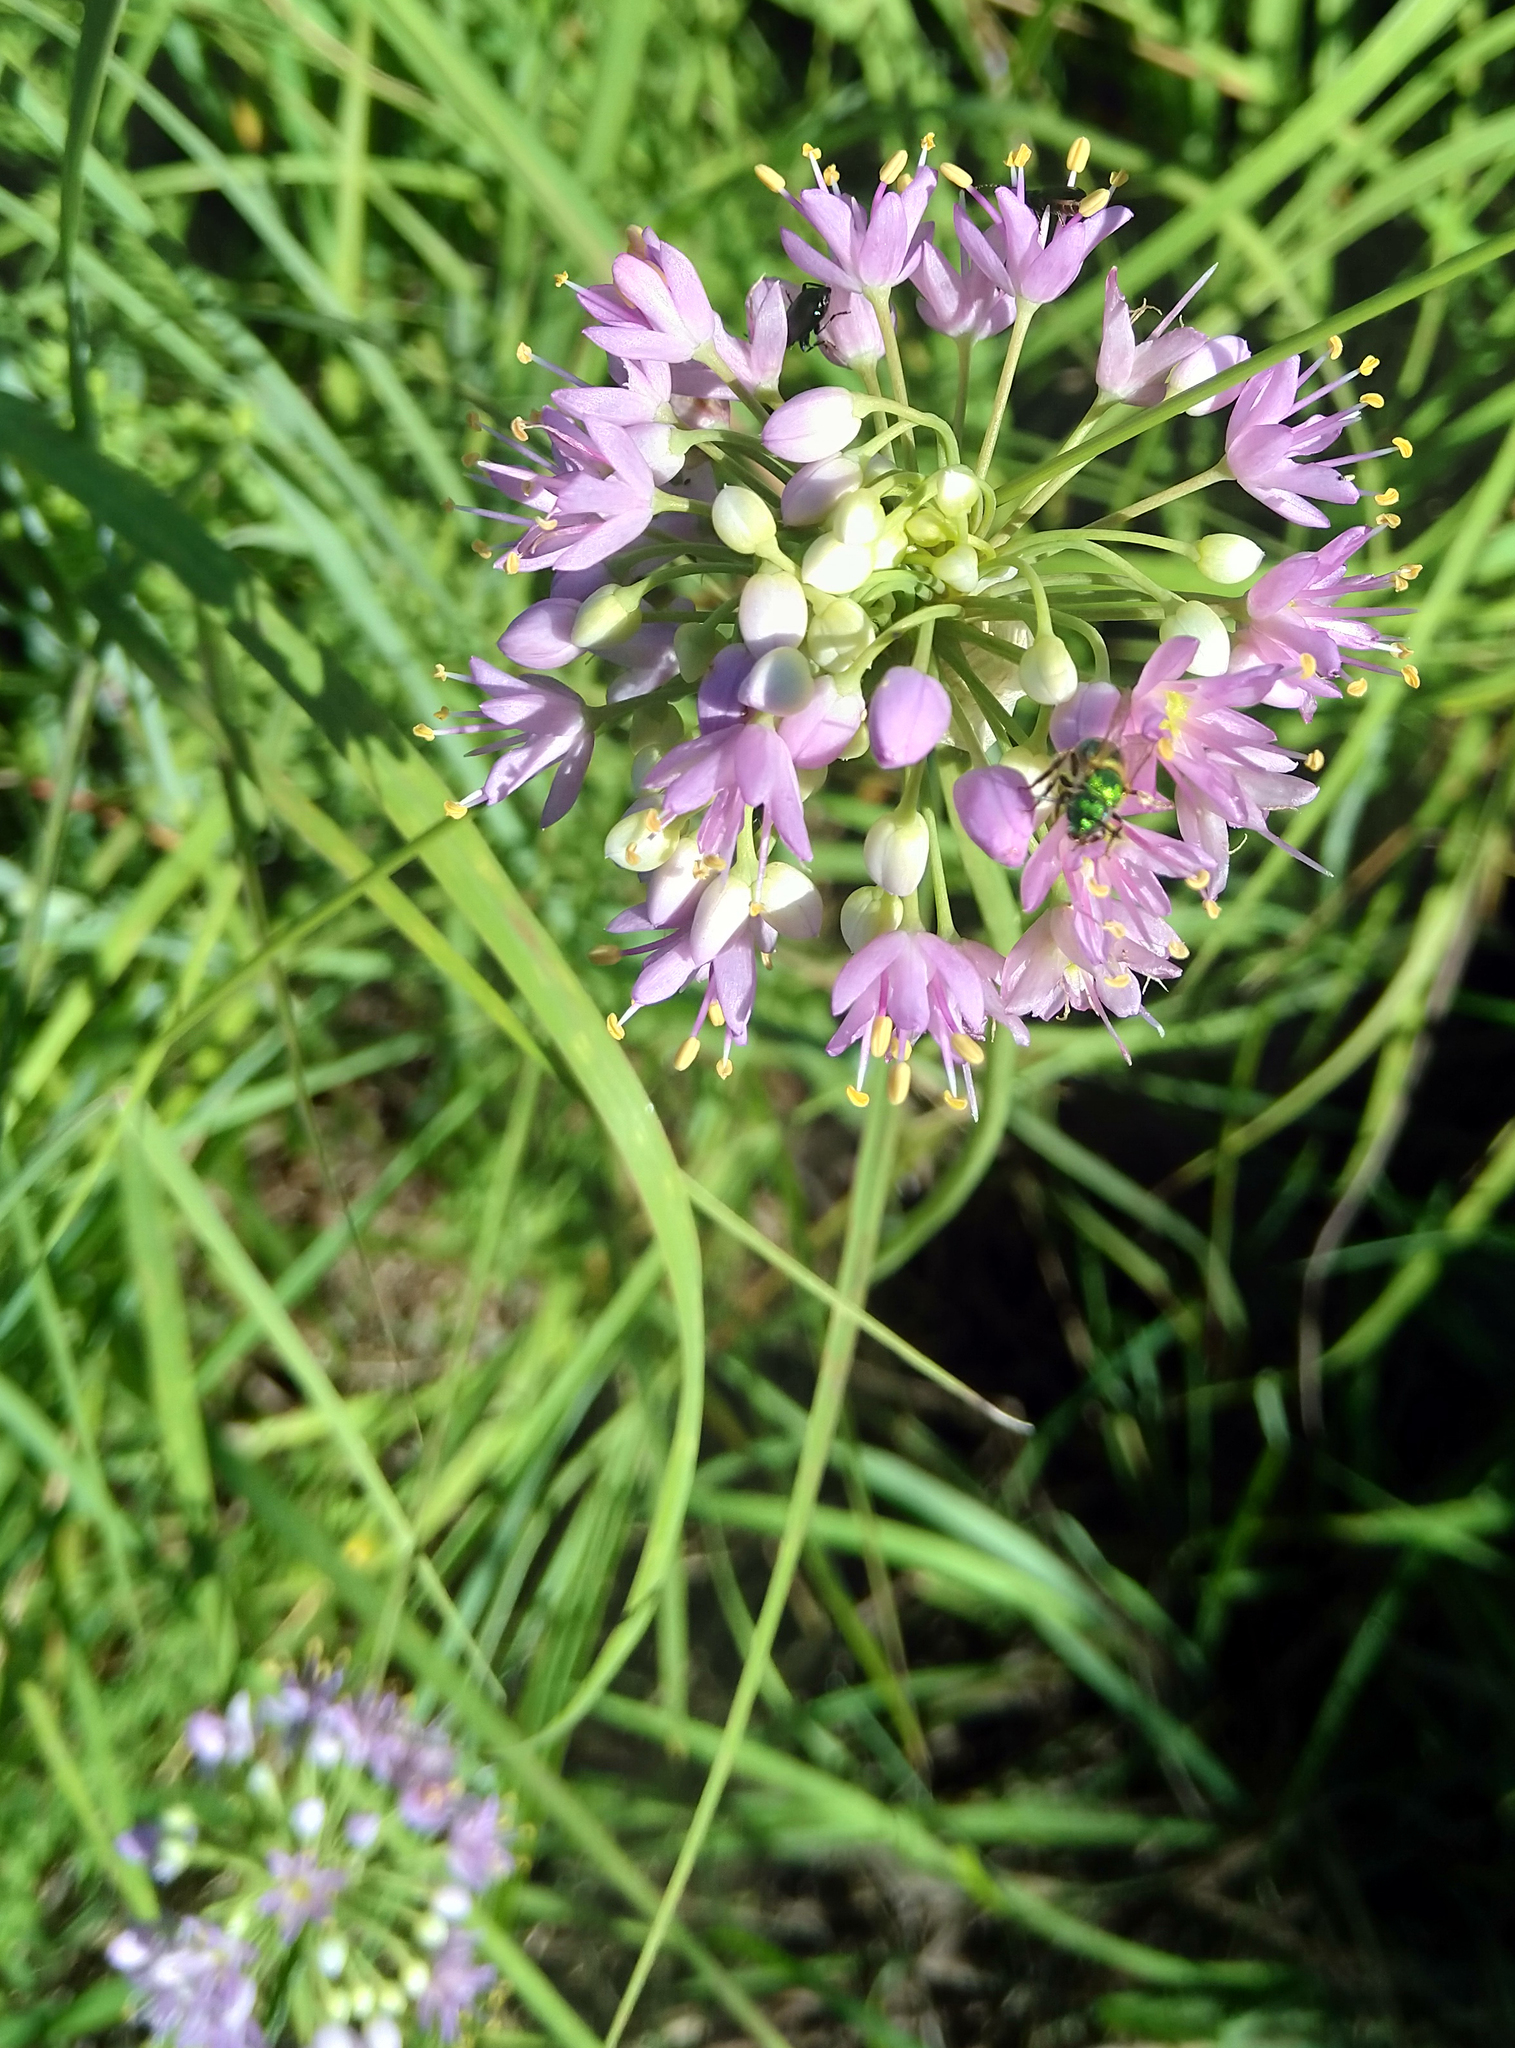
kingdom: Plantae
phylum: Tracheophyta
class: Liliopsida
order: Asparagales
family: Amaryllidaceae
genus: Allium
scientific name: Allium stellatum
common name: Autumn onion
